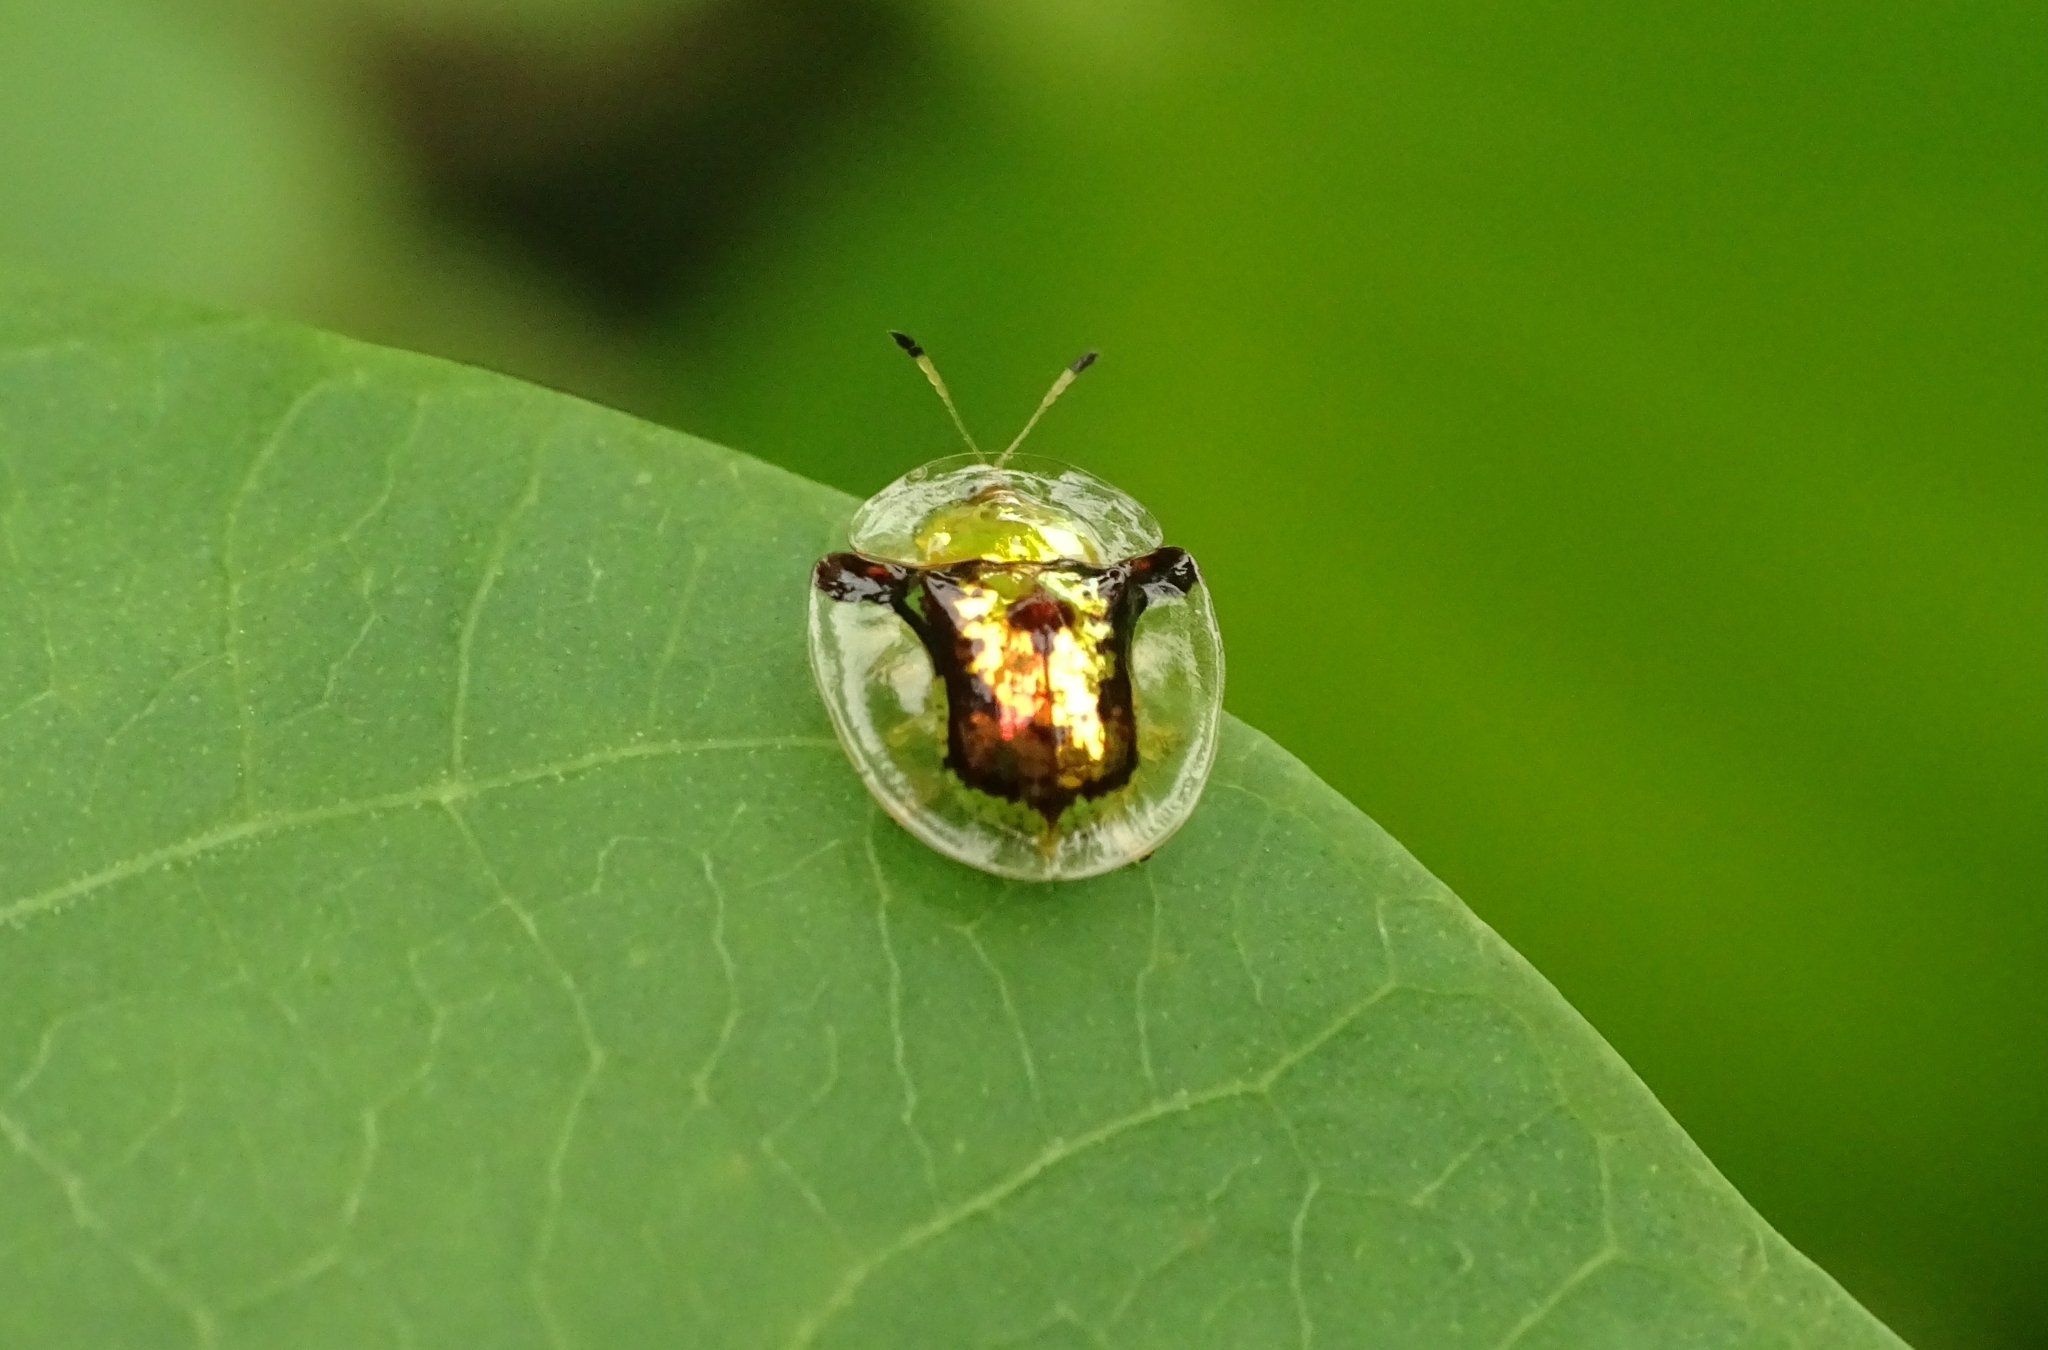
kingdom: Animalia
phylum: Arthropoda
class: Insecta
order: Coleoptera
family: Chrysomelidae
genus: Aspidimorpha
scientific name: Aspidimorpha furcata
